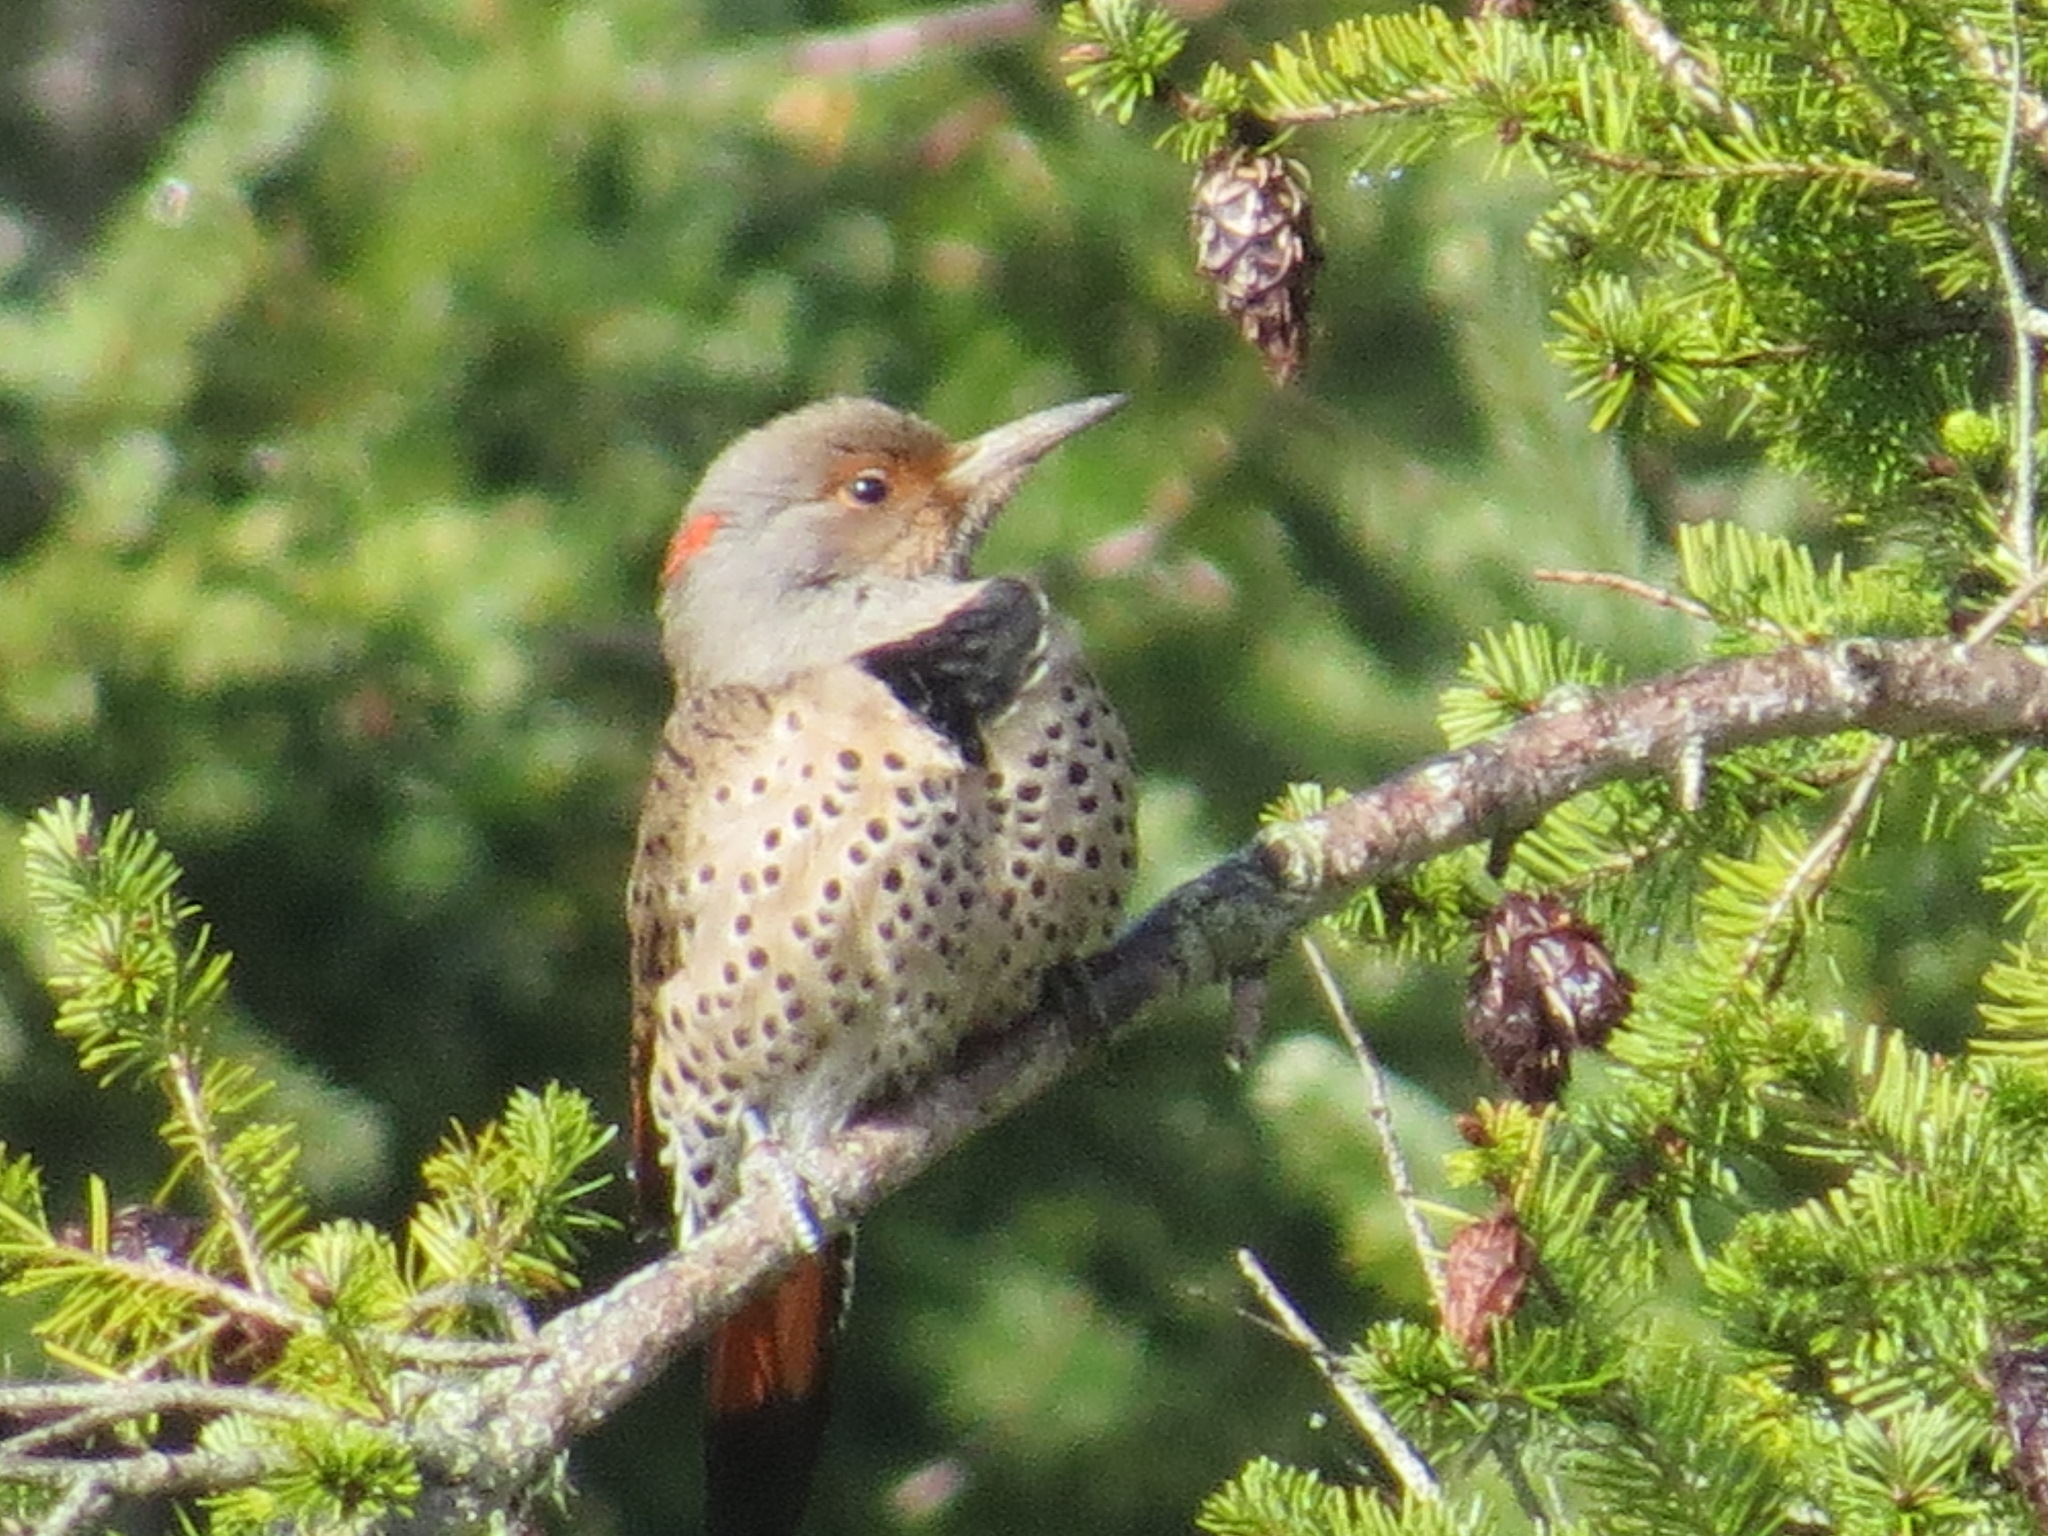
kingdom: Animalia
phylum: Chordata
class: Aves
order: Piciformes
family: Picidae
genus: Colaptes
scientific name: Colaptes
